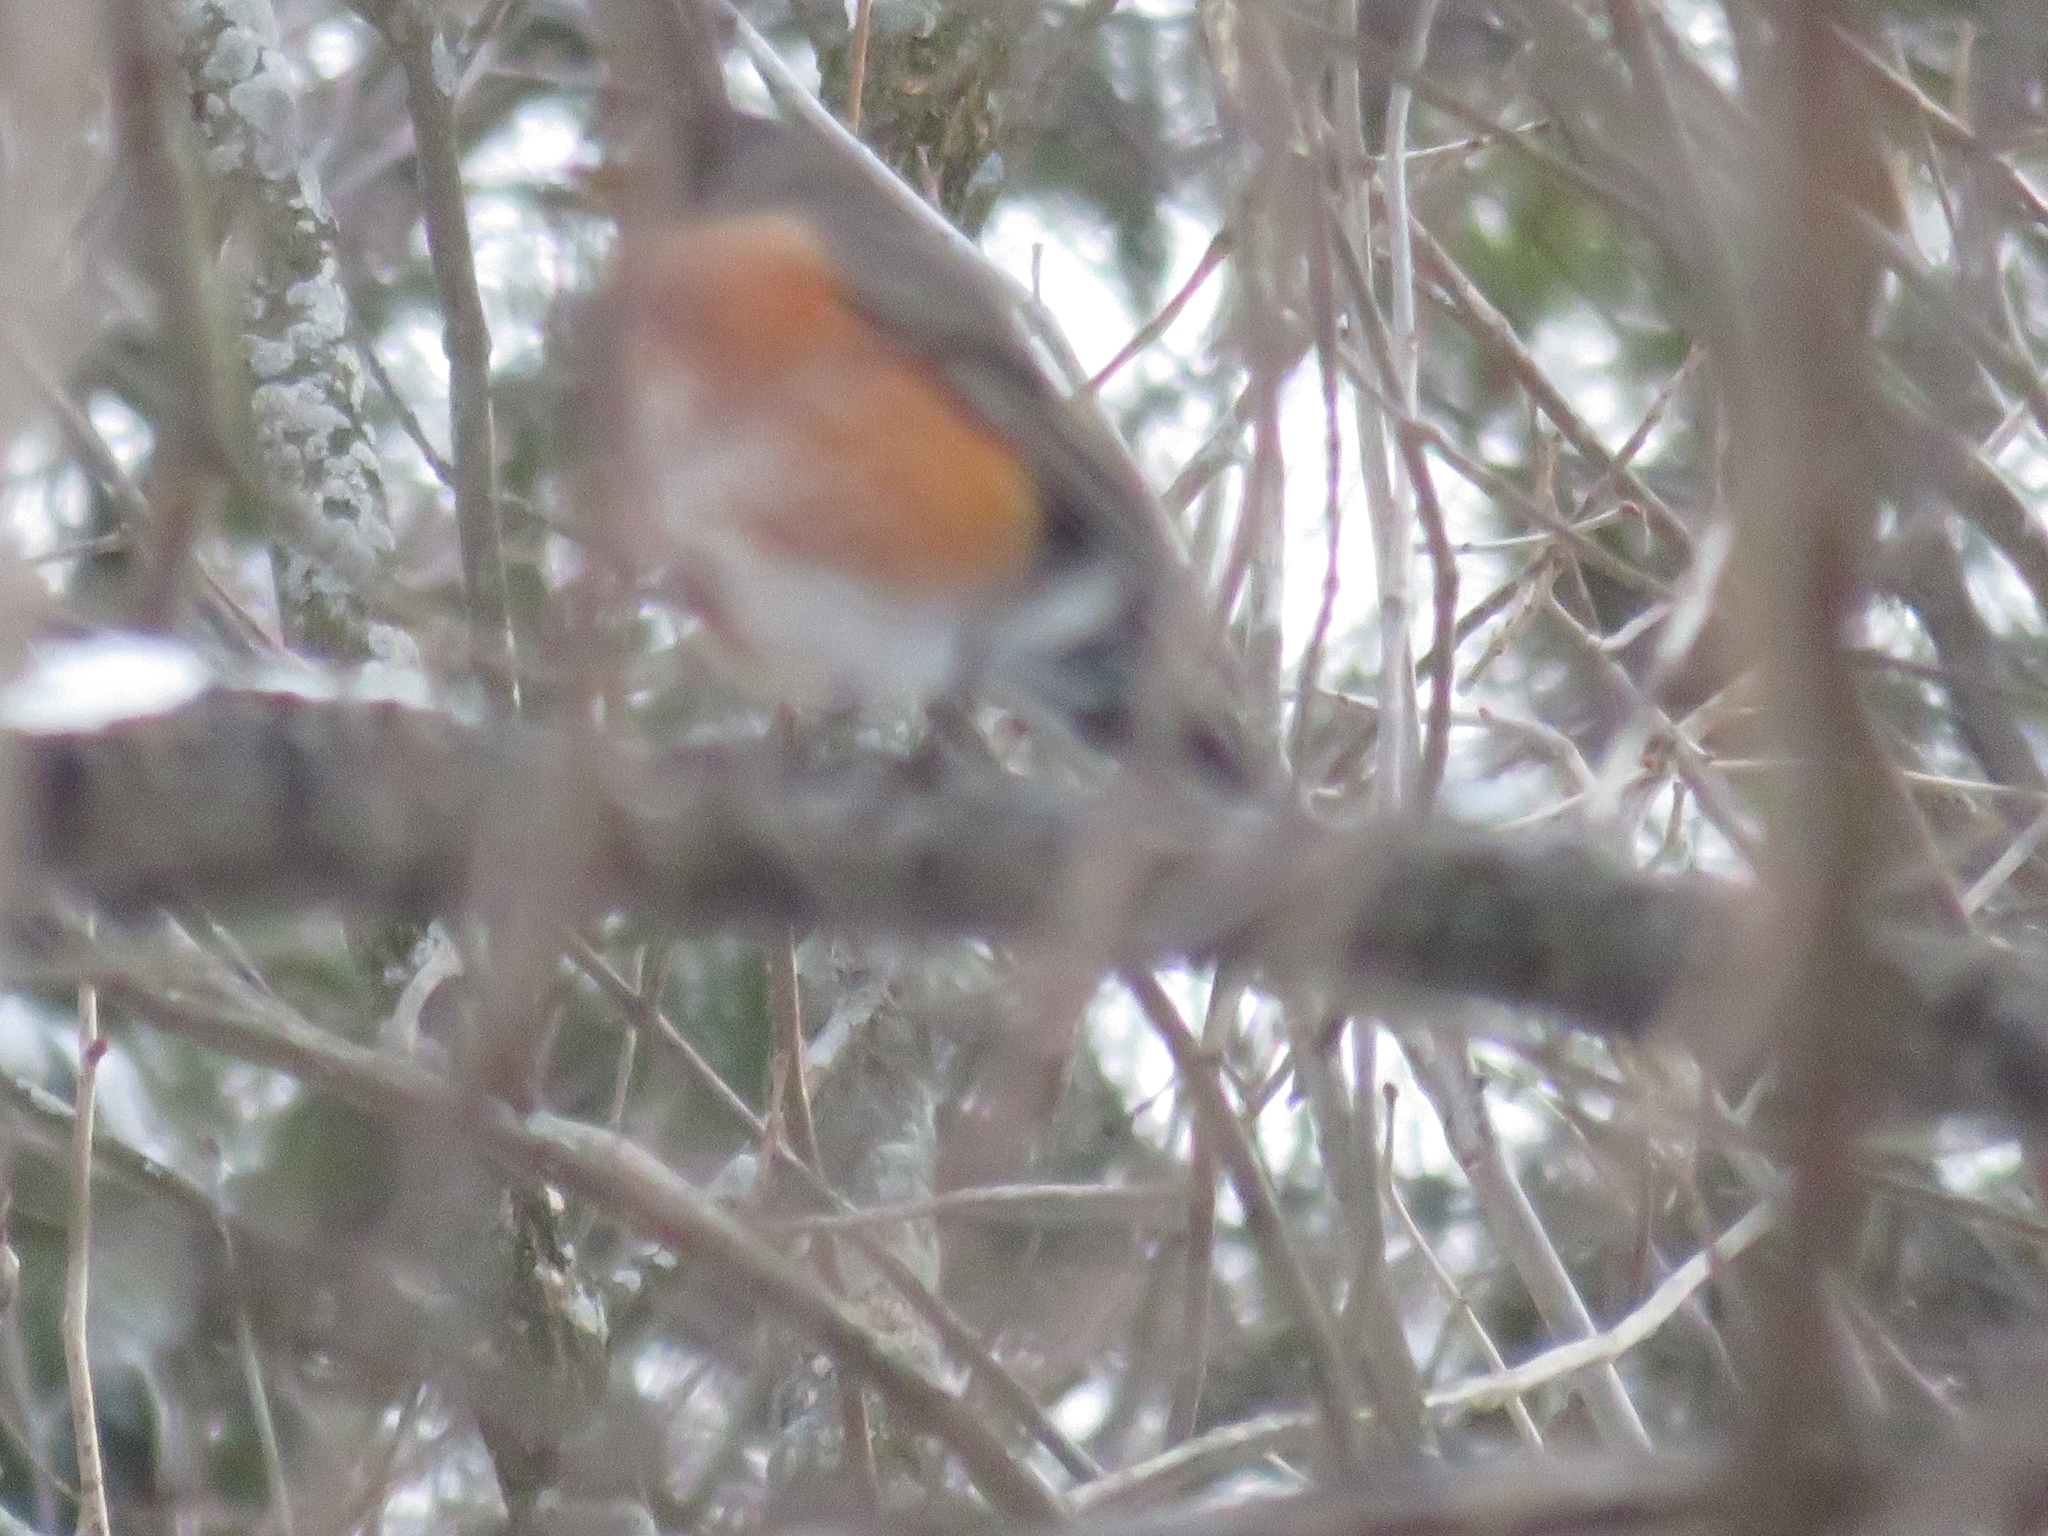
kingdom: Animalia
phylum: Chordata
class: Aves
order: Passeriformes
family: Turdidae
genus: Turdus
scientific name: Turdus migratorius
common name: American robin
